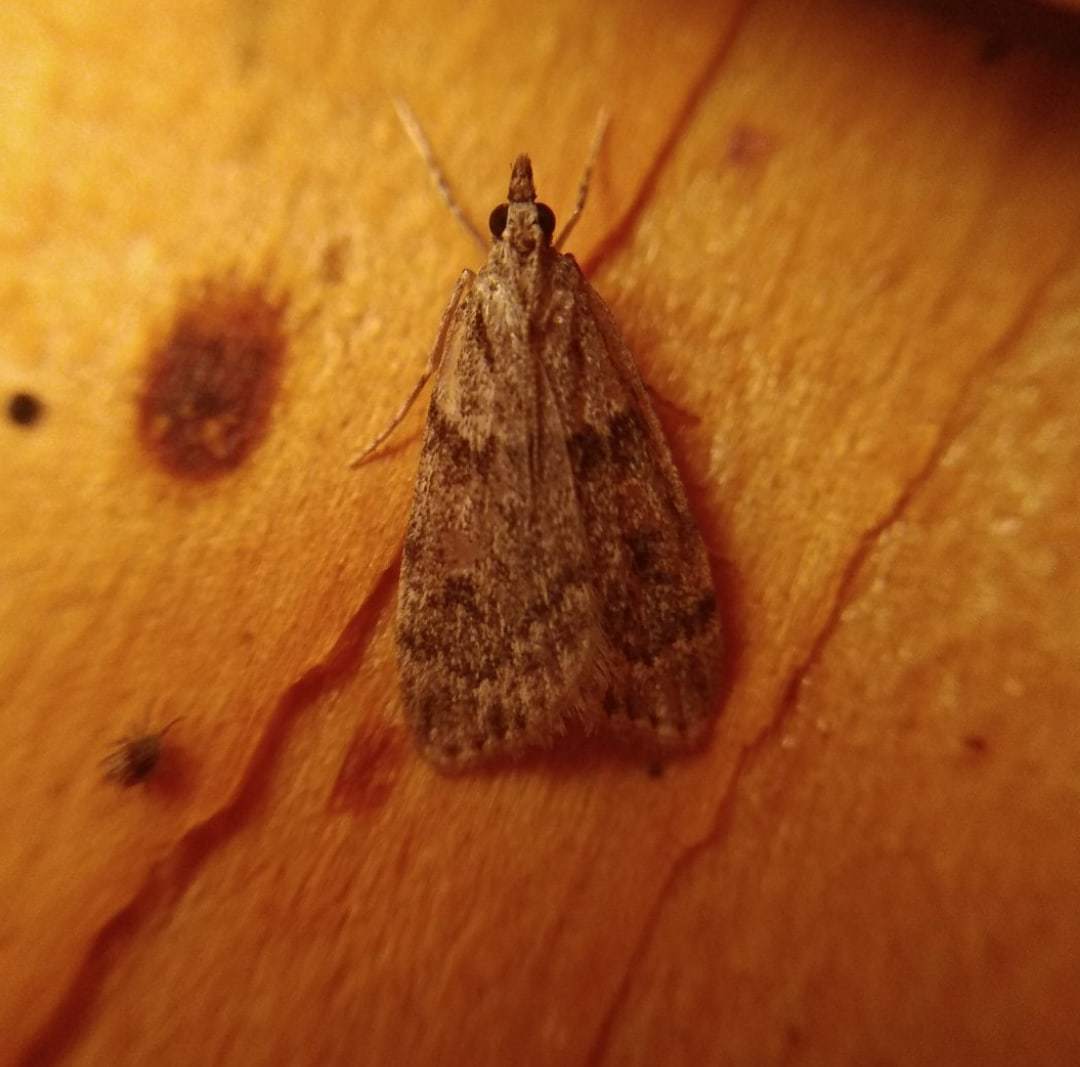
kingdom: Animalia
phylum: Arthropoda
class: Insecta
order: Lepidoptera
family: Crambidae
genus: Scoparia
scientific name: Scoparia ancipitella
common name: Northern grey
